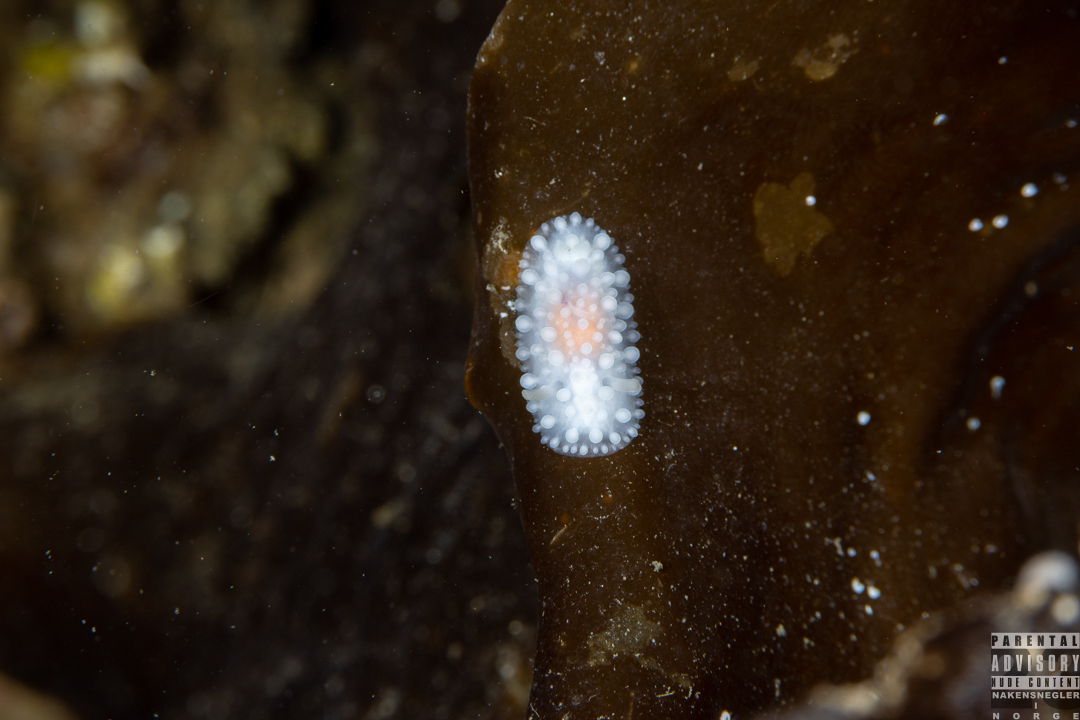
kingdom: Animalia
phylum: Mollusca
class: Gastropoda
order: Nudibranchia
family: Onchidorididae
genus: Adalaria
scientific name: Adalaria proxima
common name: False doris
